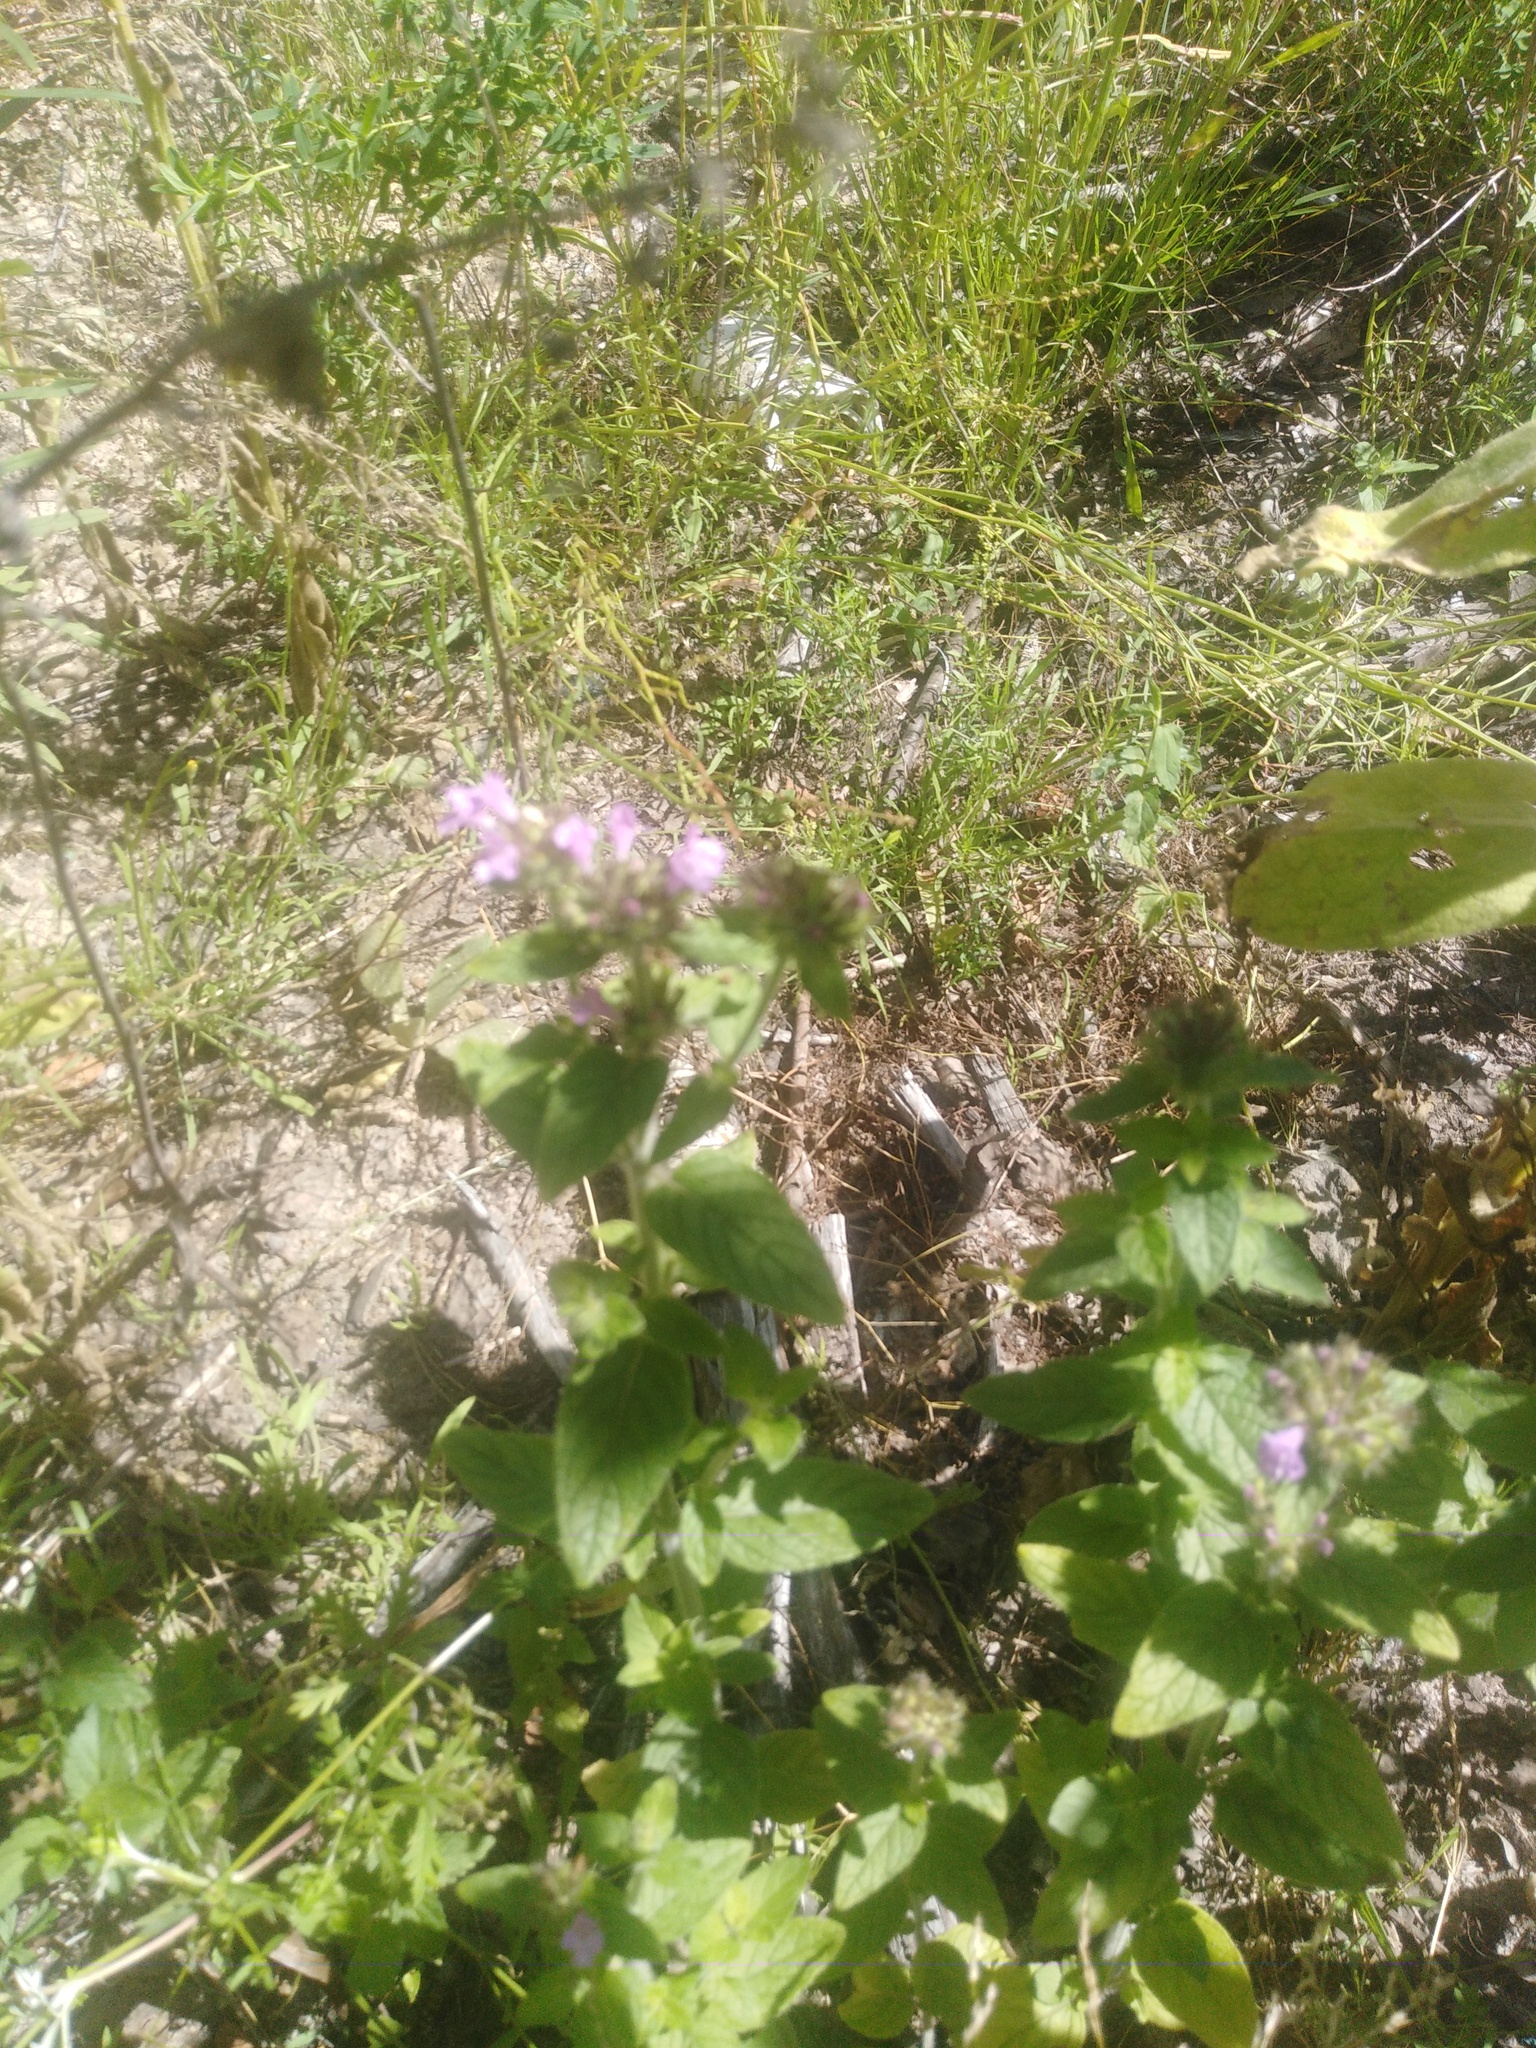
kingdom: Plantae
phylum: Tracheophyta
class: Magnoliopsida
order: Lamiales
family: Lamiaceae
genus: Clinopodium
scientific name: Clinopodium vulgare
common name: Wild basil
